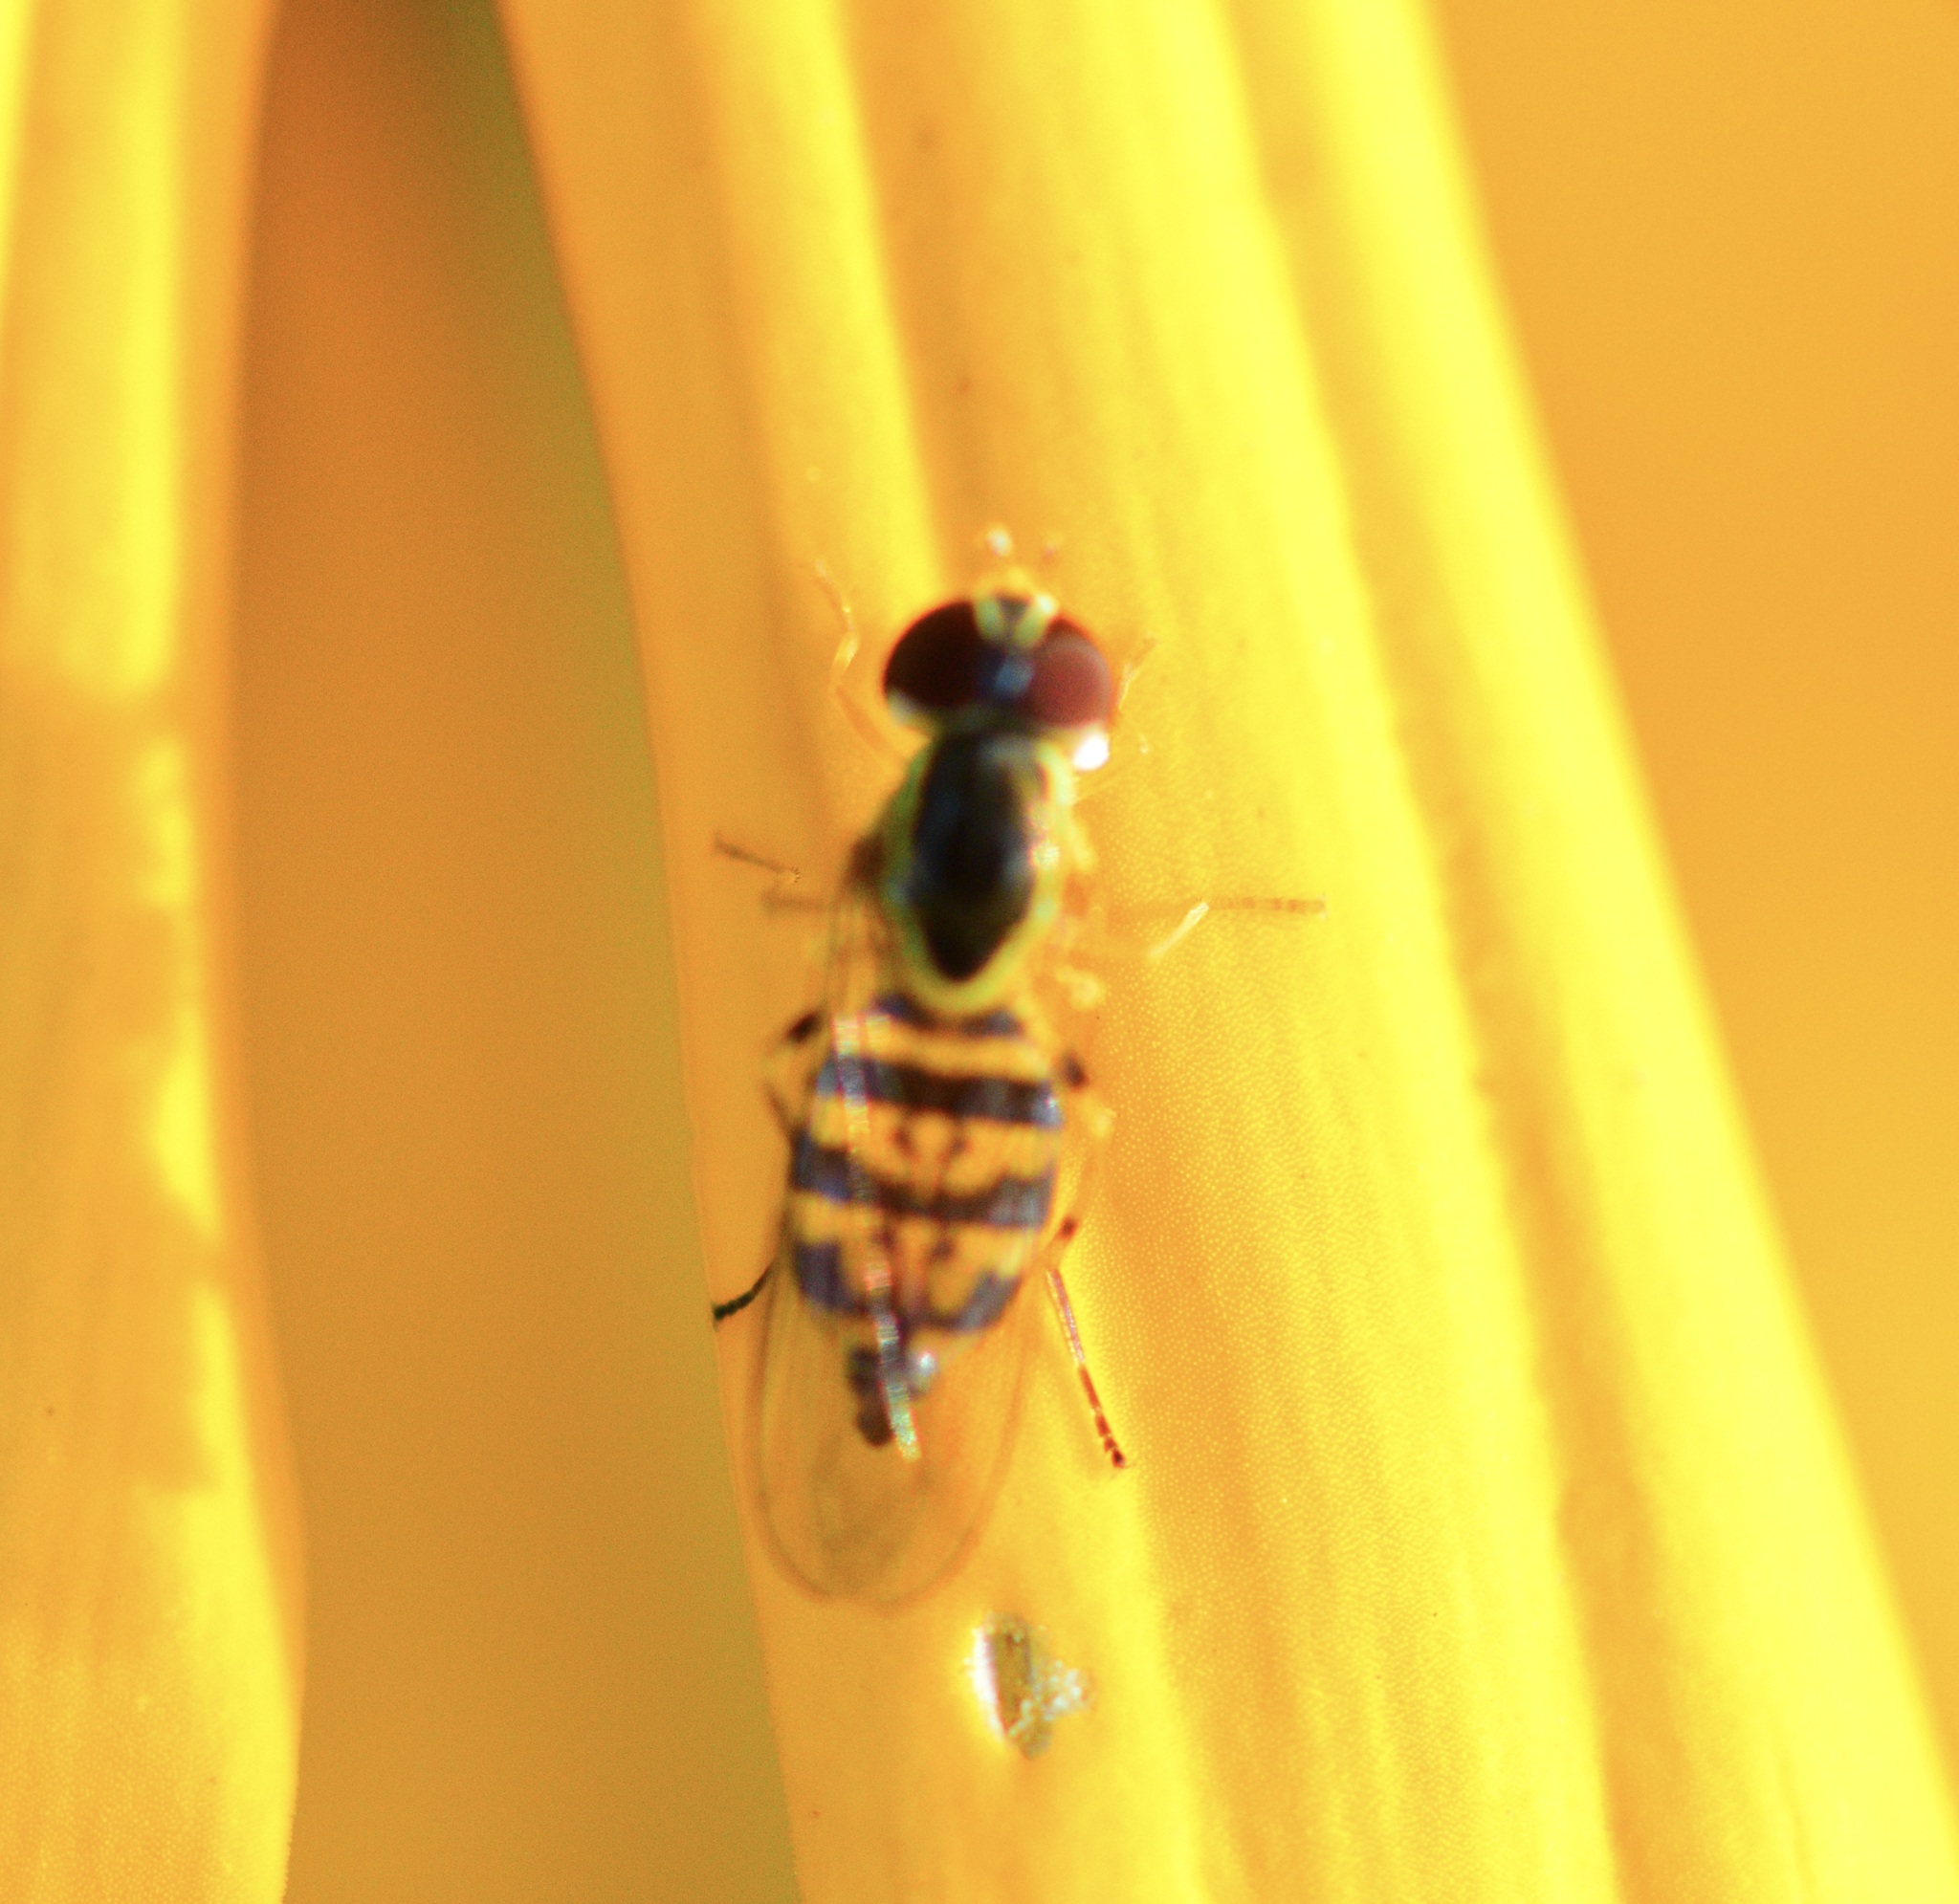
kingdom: Animalia
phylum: Arthropoda
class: Insecta
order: Diptera
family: Syrphidae
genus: Toxomerus
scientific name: Toxomerus geminatus
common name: Eastern calligrapher
